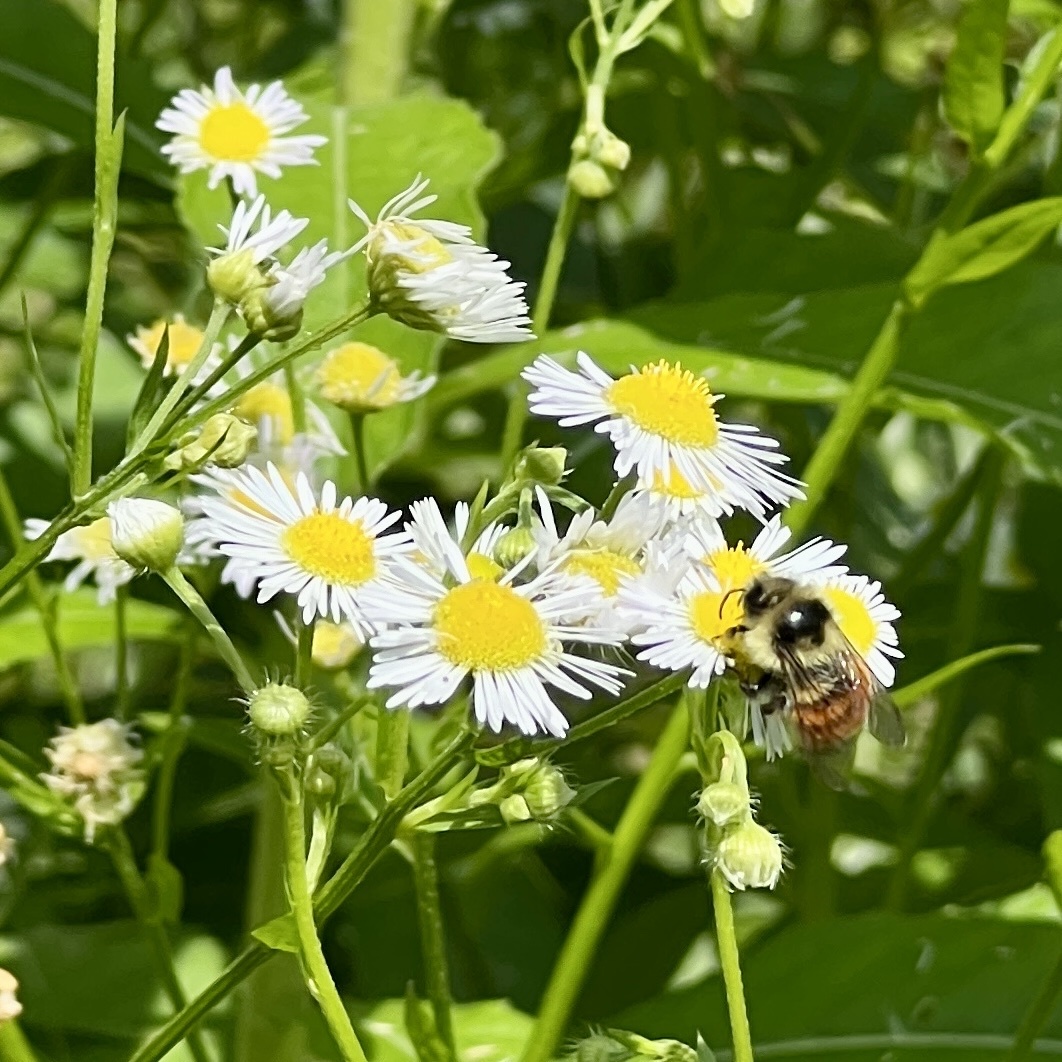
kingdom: Animalia
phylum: Arthropoda
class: Insecta
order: Hymenoptera
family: Apidae
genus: Bombus
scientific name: Bombus ternarius
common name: Tri-colored bumble bee
